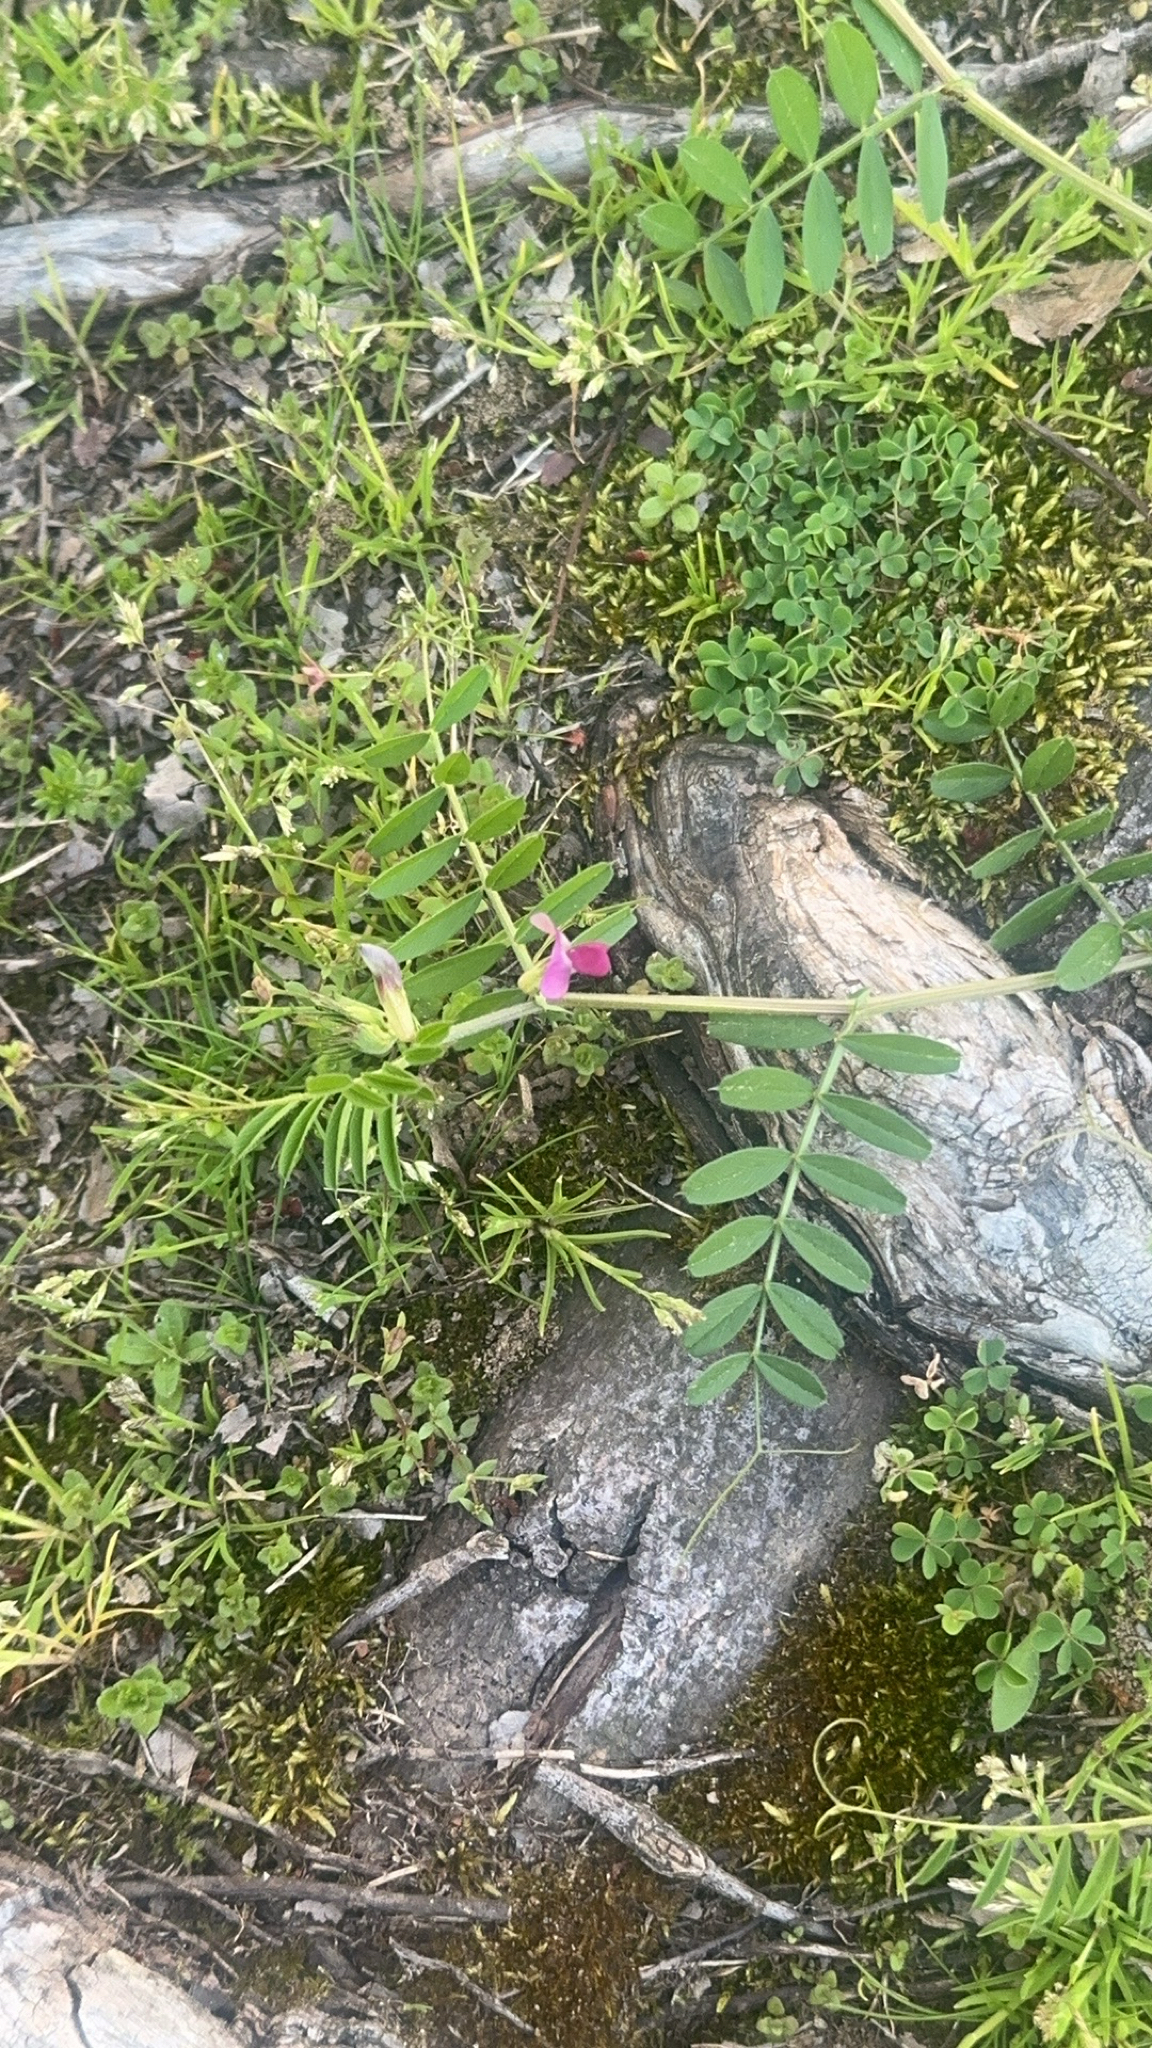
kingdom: Plantae
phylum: Tracheophyta
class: Magnoliopsida
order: Fabales
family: Fabaceae
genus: Vicia
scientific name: Vicia sativa
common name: Garden vetch
